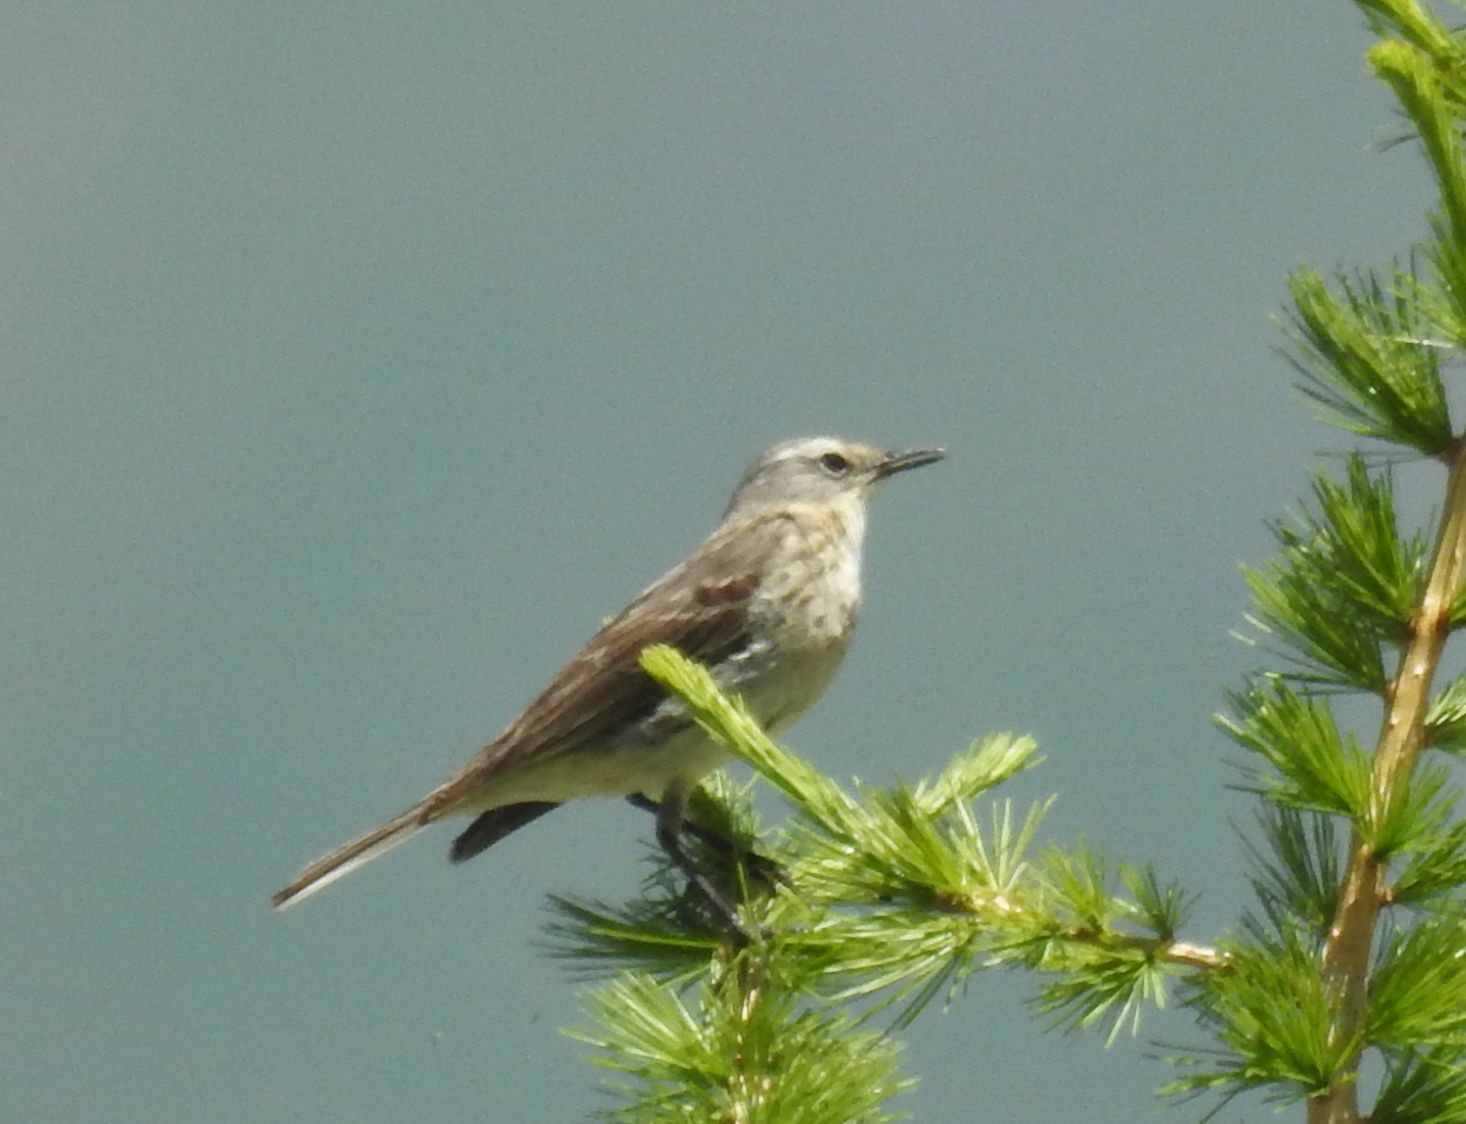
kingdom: Animalia
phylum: Chordata
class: Aves
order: Passeriformes
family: Motacillidae
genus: Anthus
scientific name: Anthus spinoletta
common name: Water pipit
